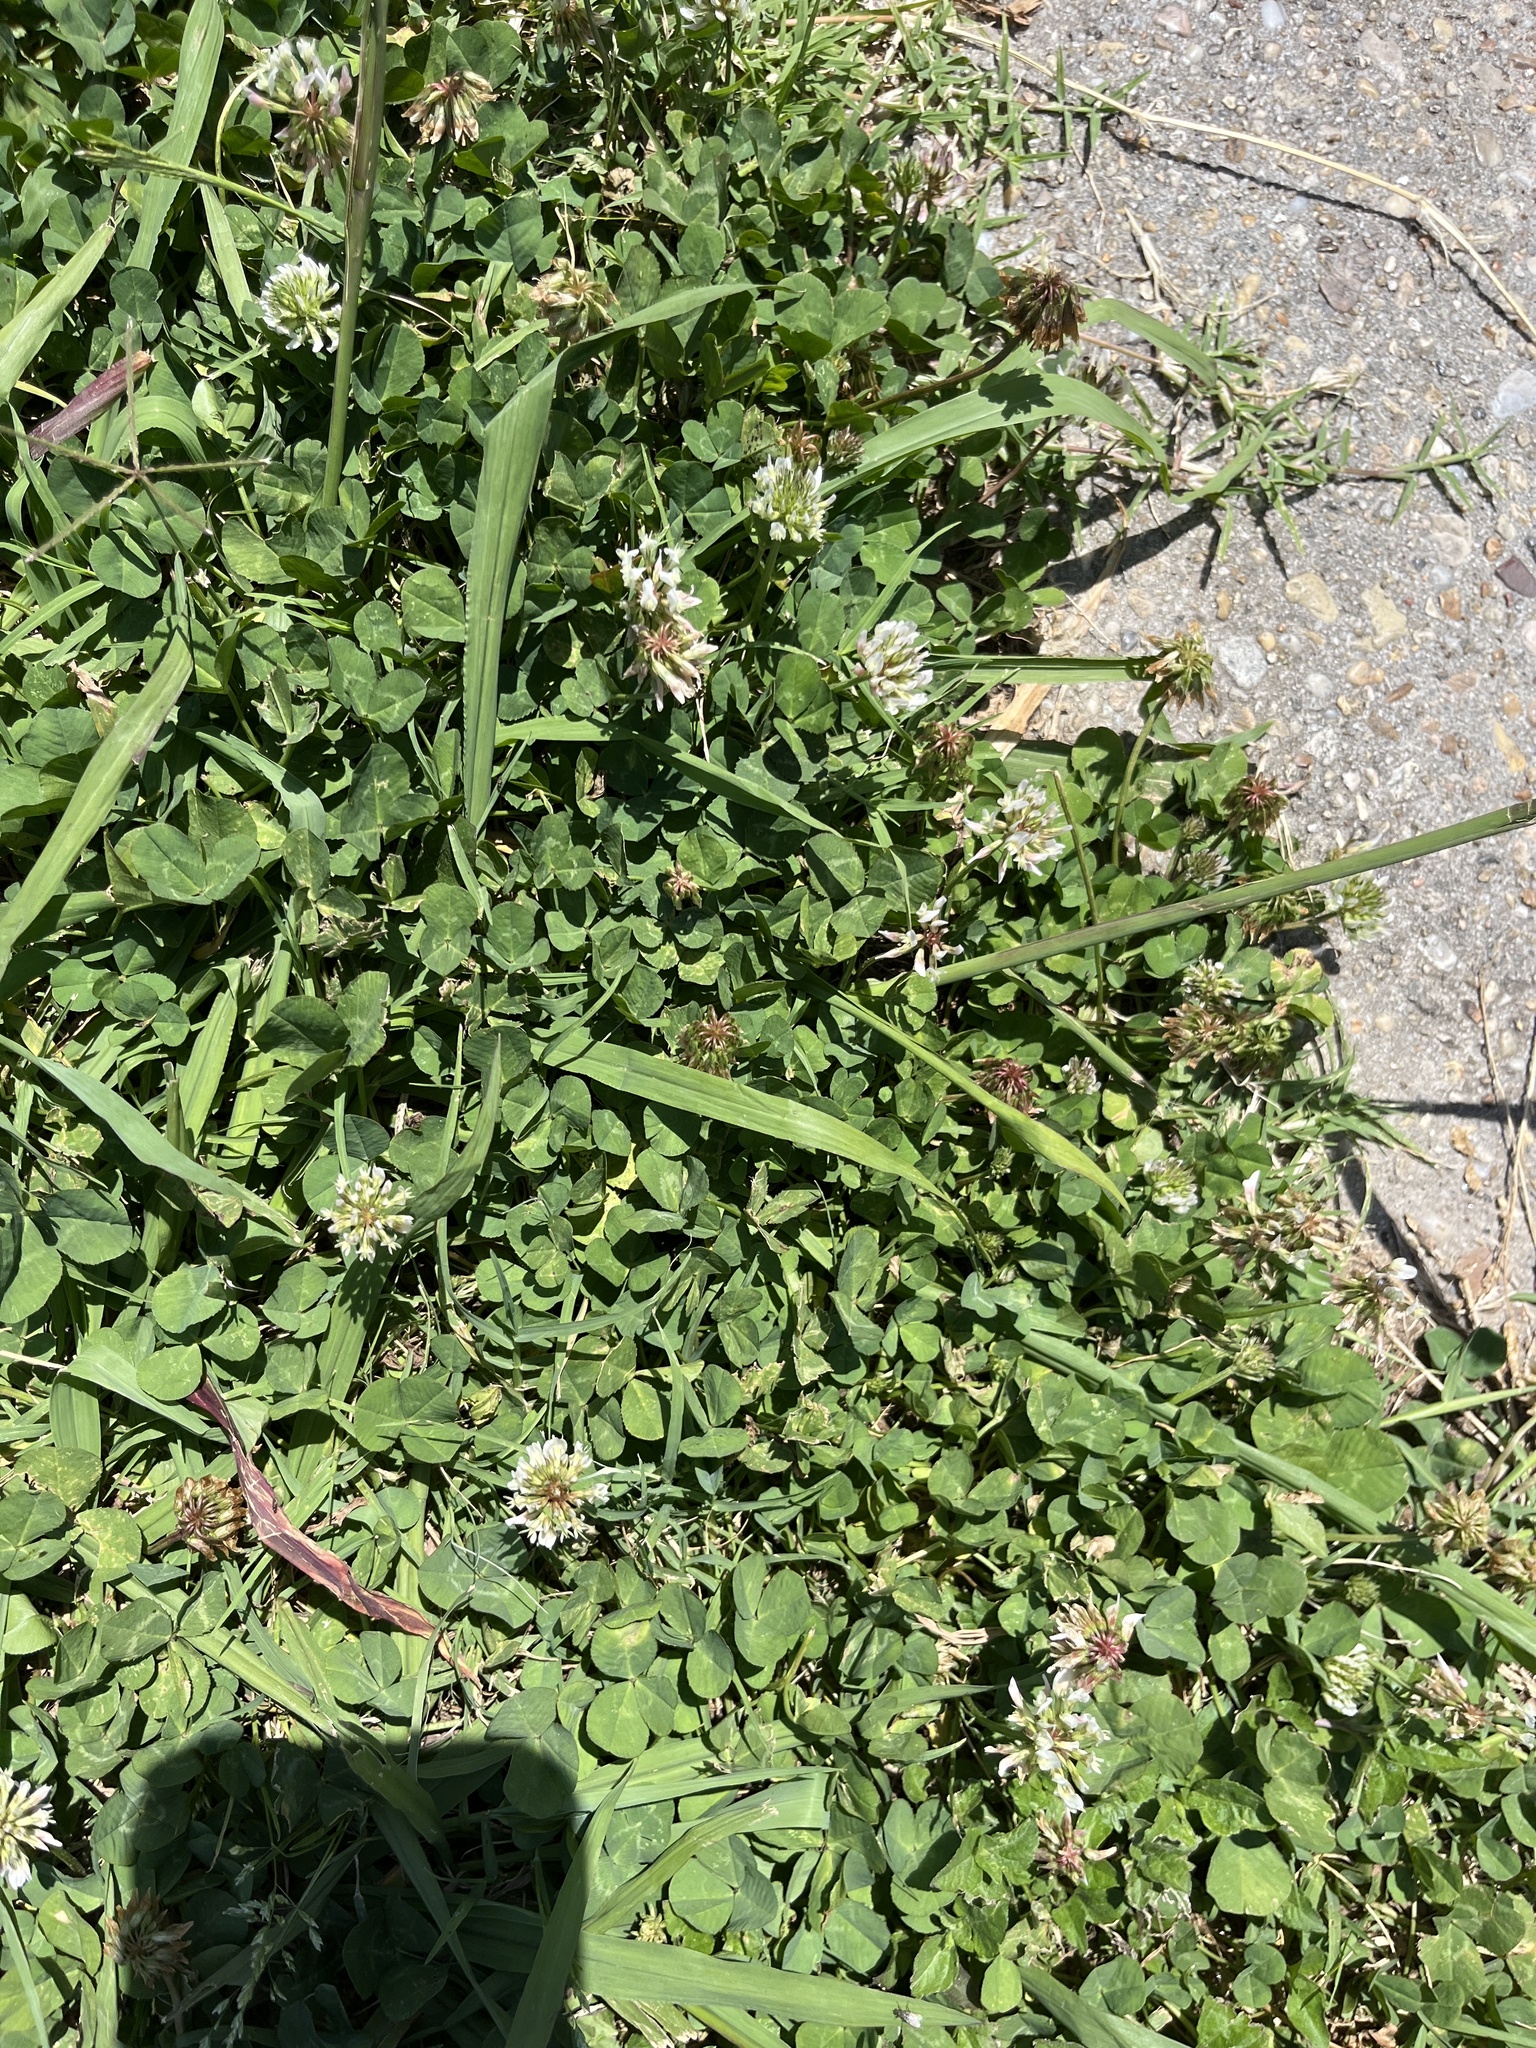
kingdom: Plantae
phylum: Tracheophyta
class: Magnoliopsida
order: Fabales
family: Fabaceae
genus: Trifolium
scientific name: Trifolium repens
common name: White clover
